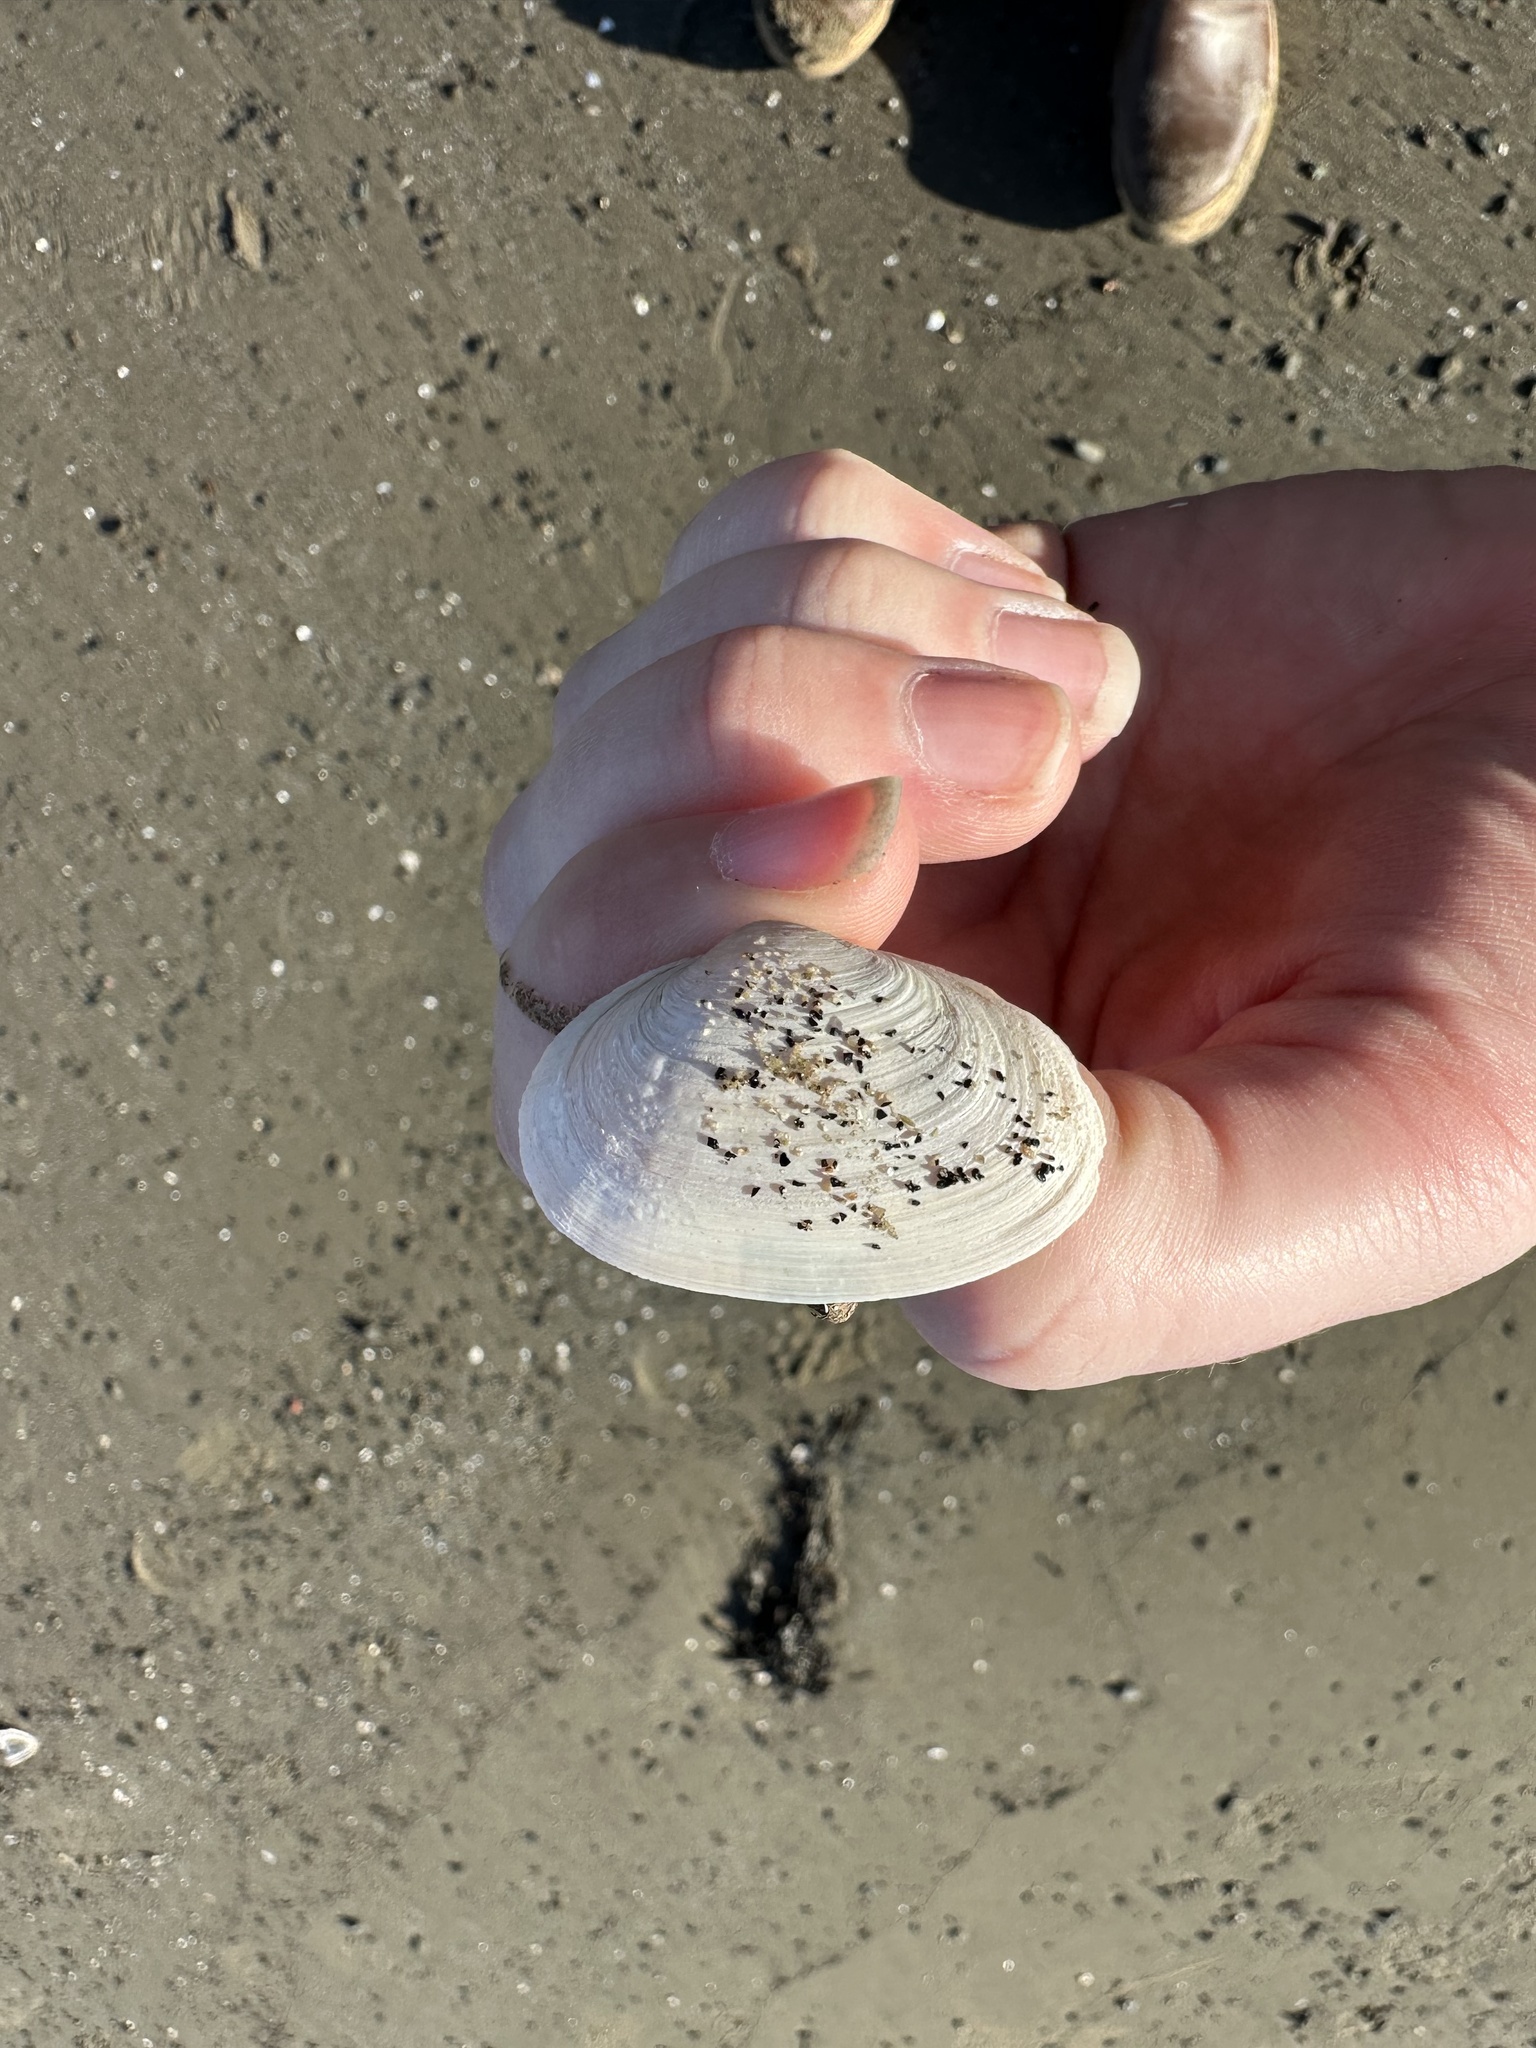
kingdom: Animalia
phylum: Mollusca
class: Bivalvia
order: Myida
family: Myidae
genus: Mya
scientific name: Mya arenaria
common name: Soft-shelled clam
